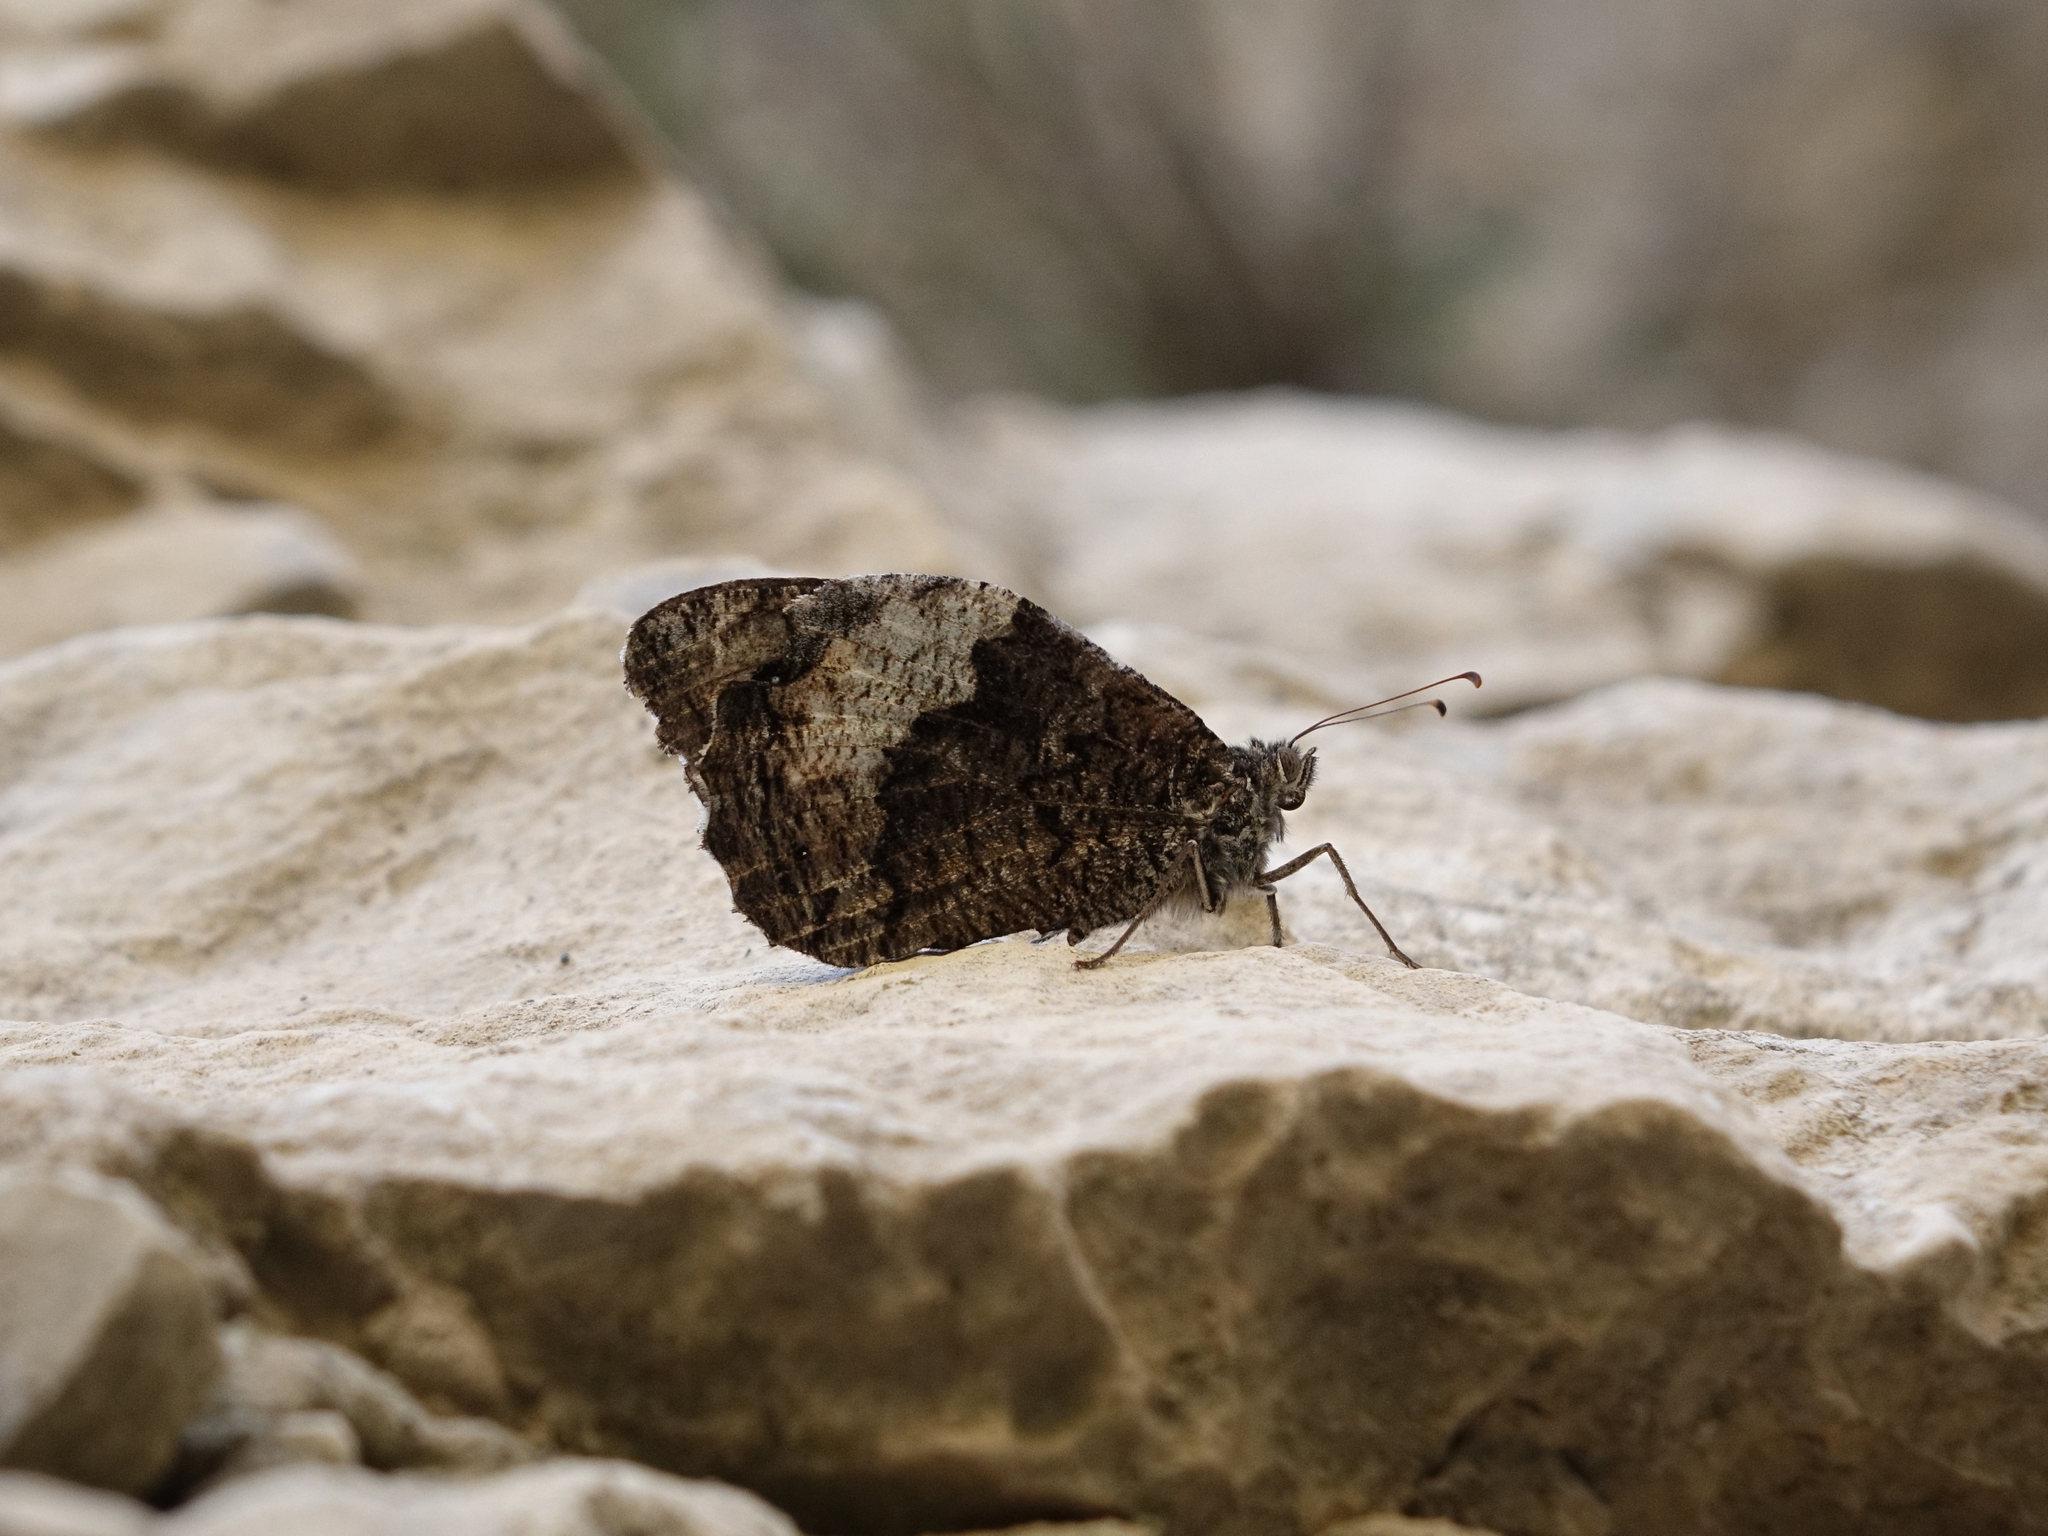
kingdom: Animalia
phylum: Arthropoda
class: Insecta
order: Lepidoptera
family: Nymphalidae
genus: Hipparchia
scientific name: Hipparchia syriaca
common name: Eastern rock grayling
